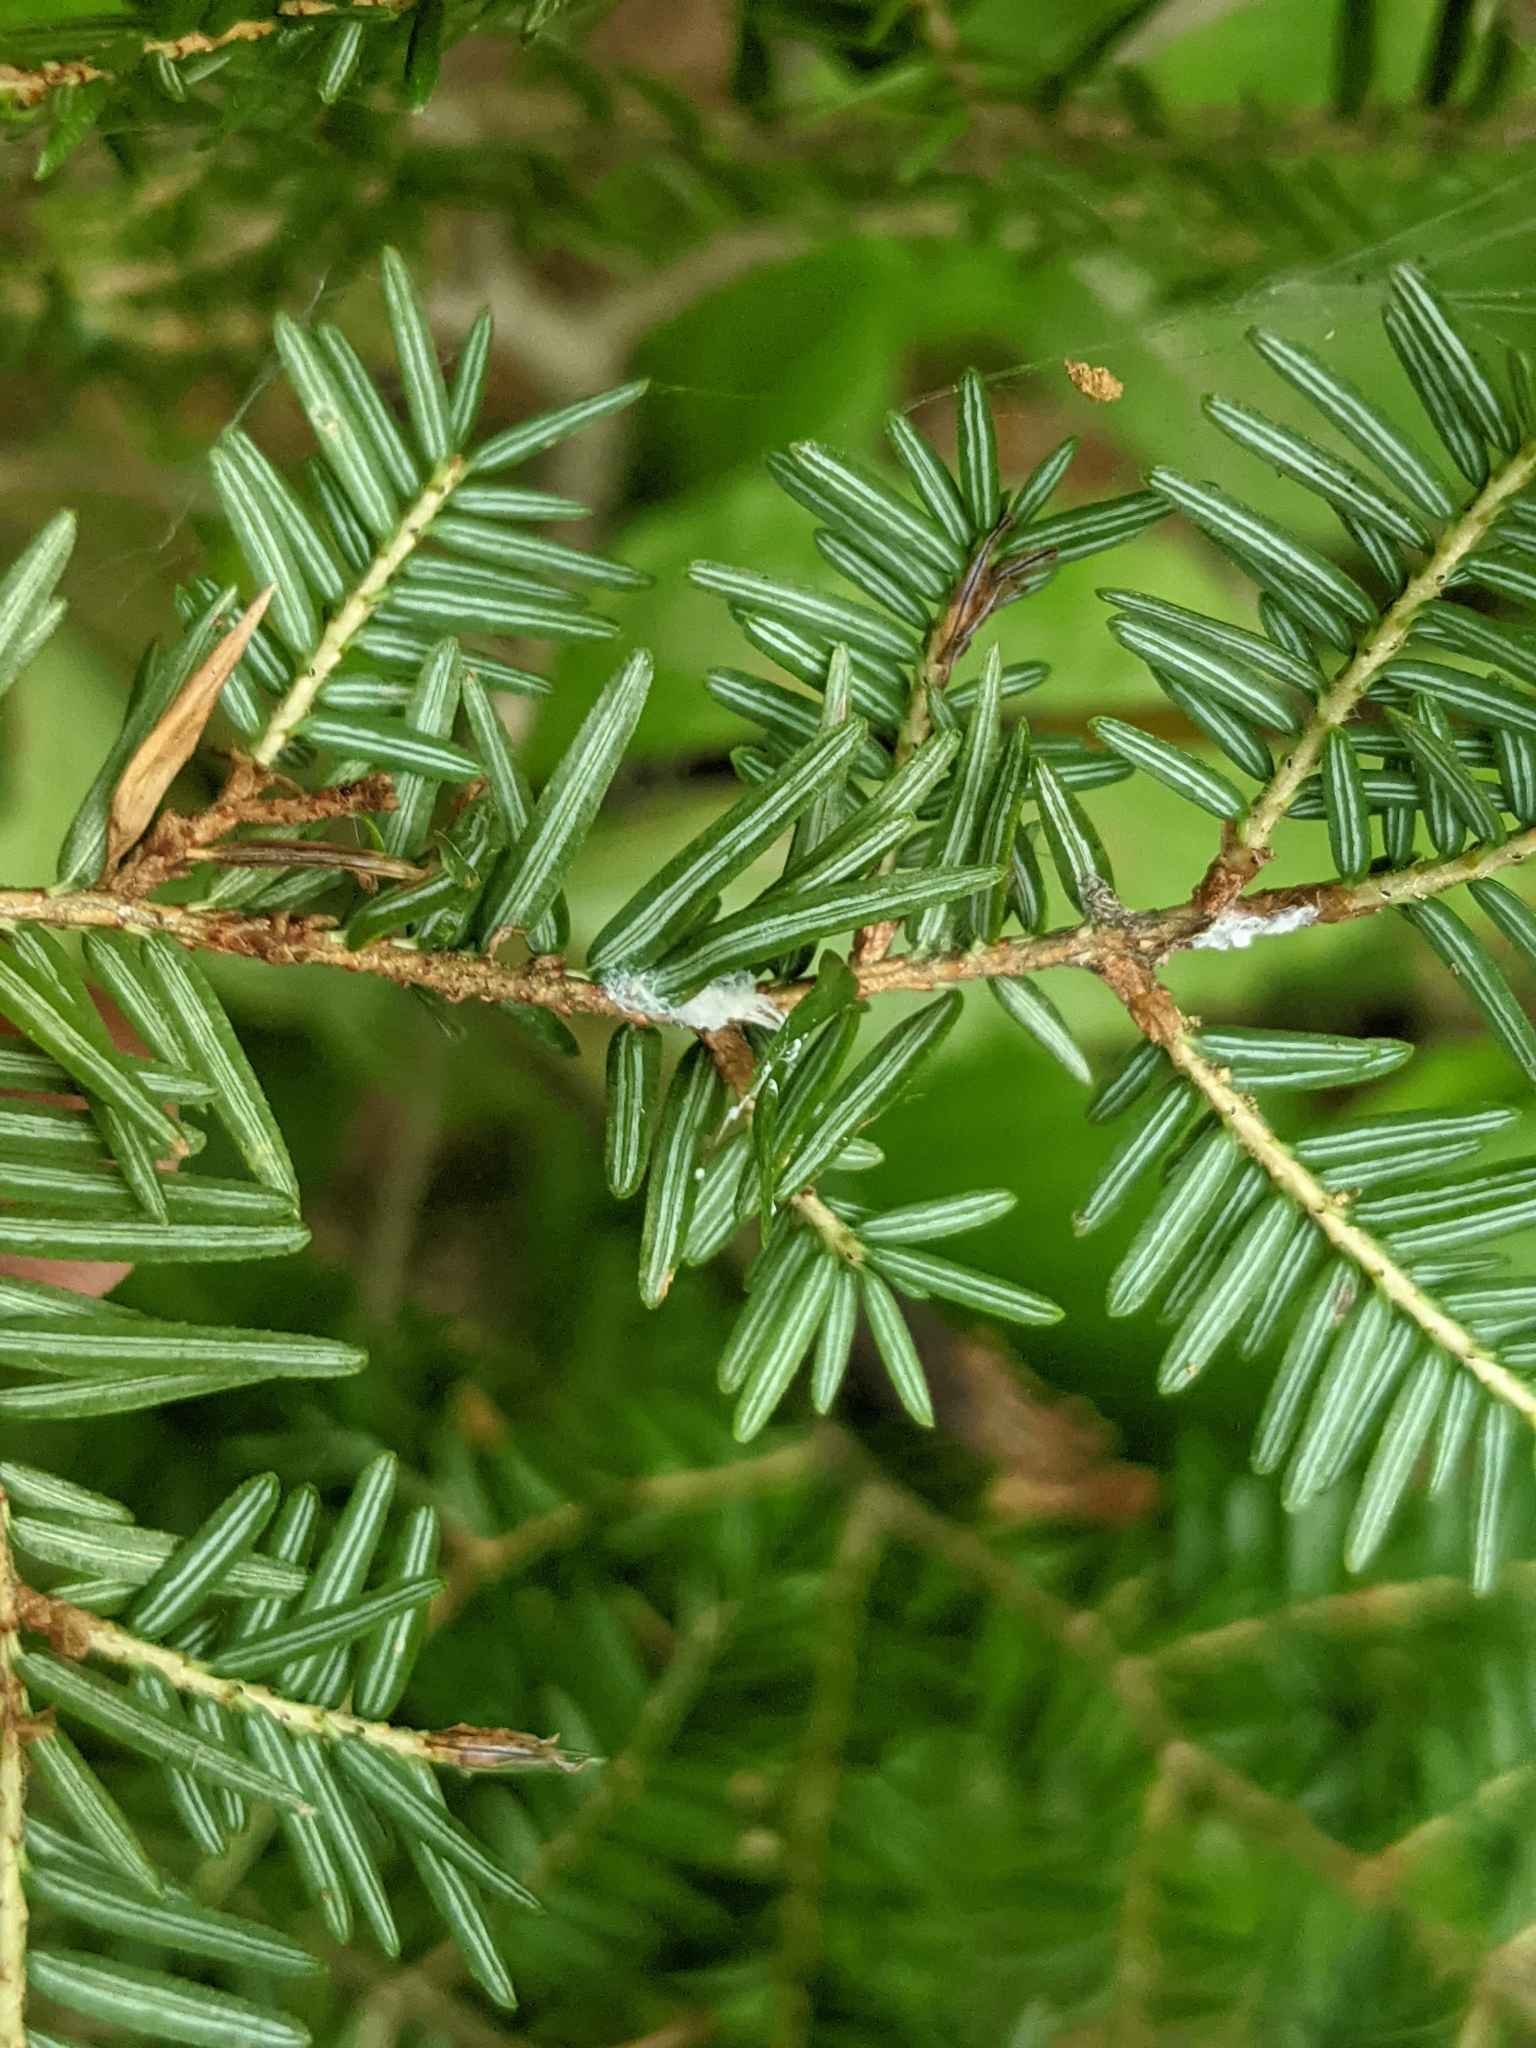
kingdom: Plantae
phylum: Tracheophyta
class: Pinopsida
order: Pinales
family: Pinaceae
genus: Tsuga
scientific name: Tsuga canadensis
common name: Eastern hemlock
